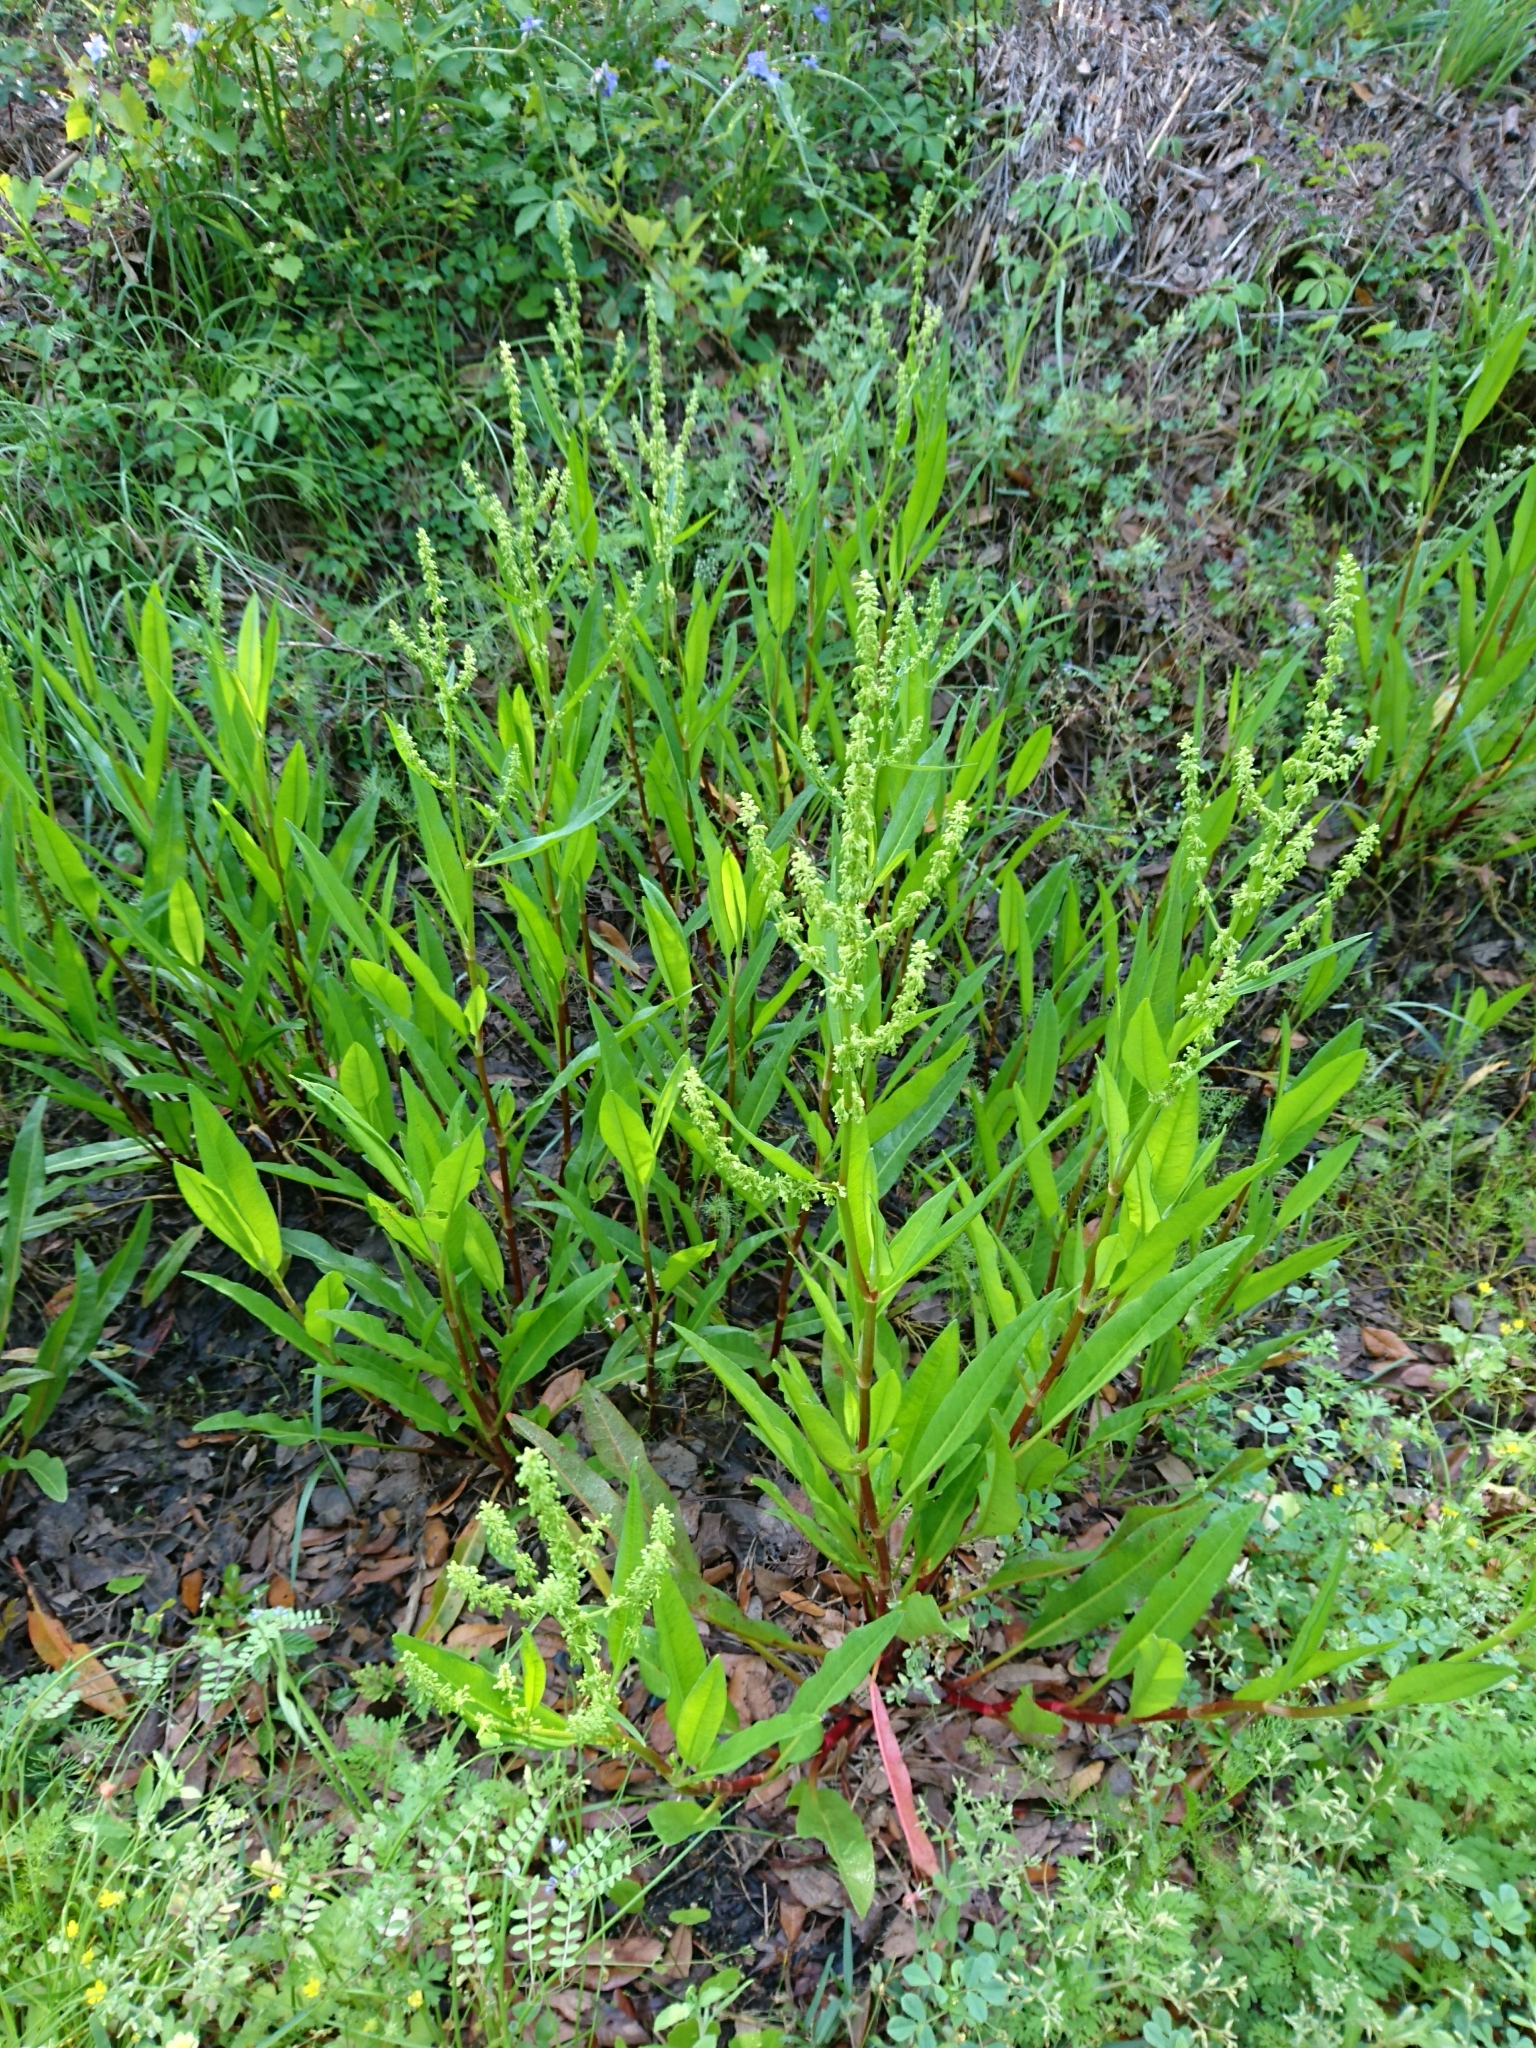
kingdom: Plantae
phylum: Tracheophyta
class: Magnoliopsida
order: Caryophyllales
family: Polygonaceae
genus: Rumex
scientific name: Rumex verticillatus
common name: Swamp dock
